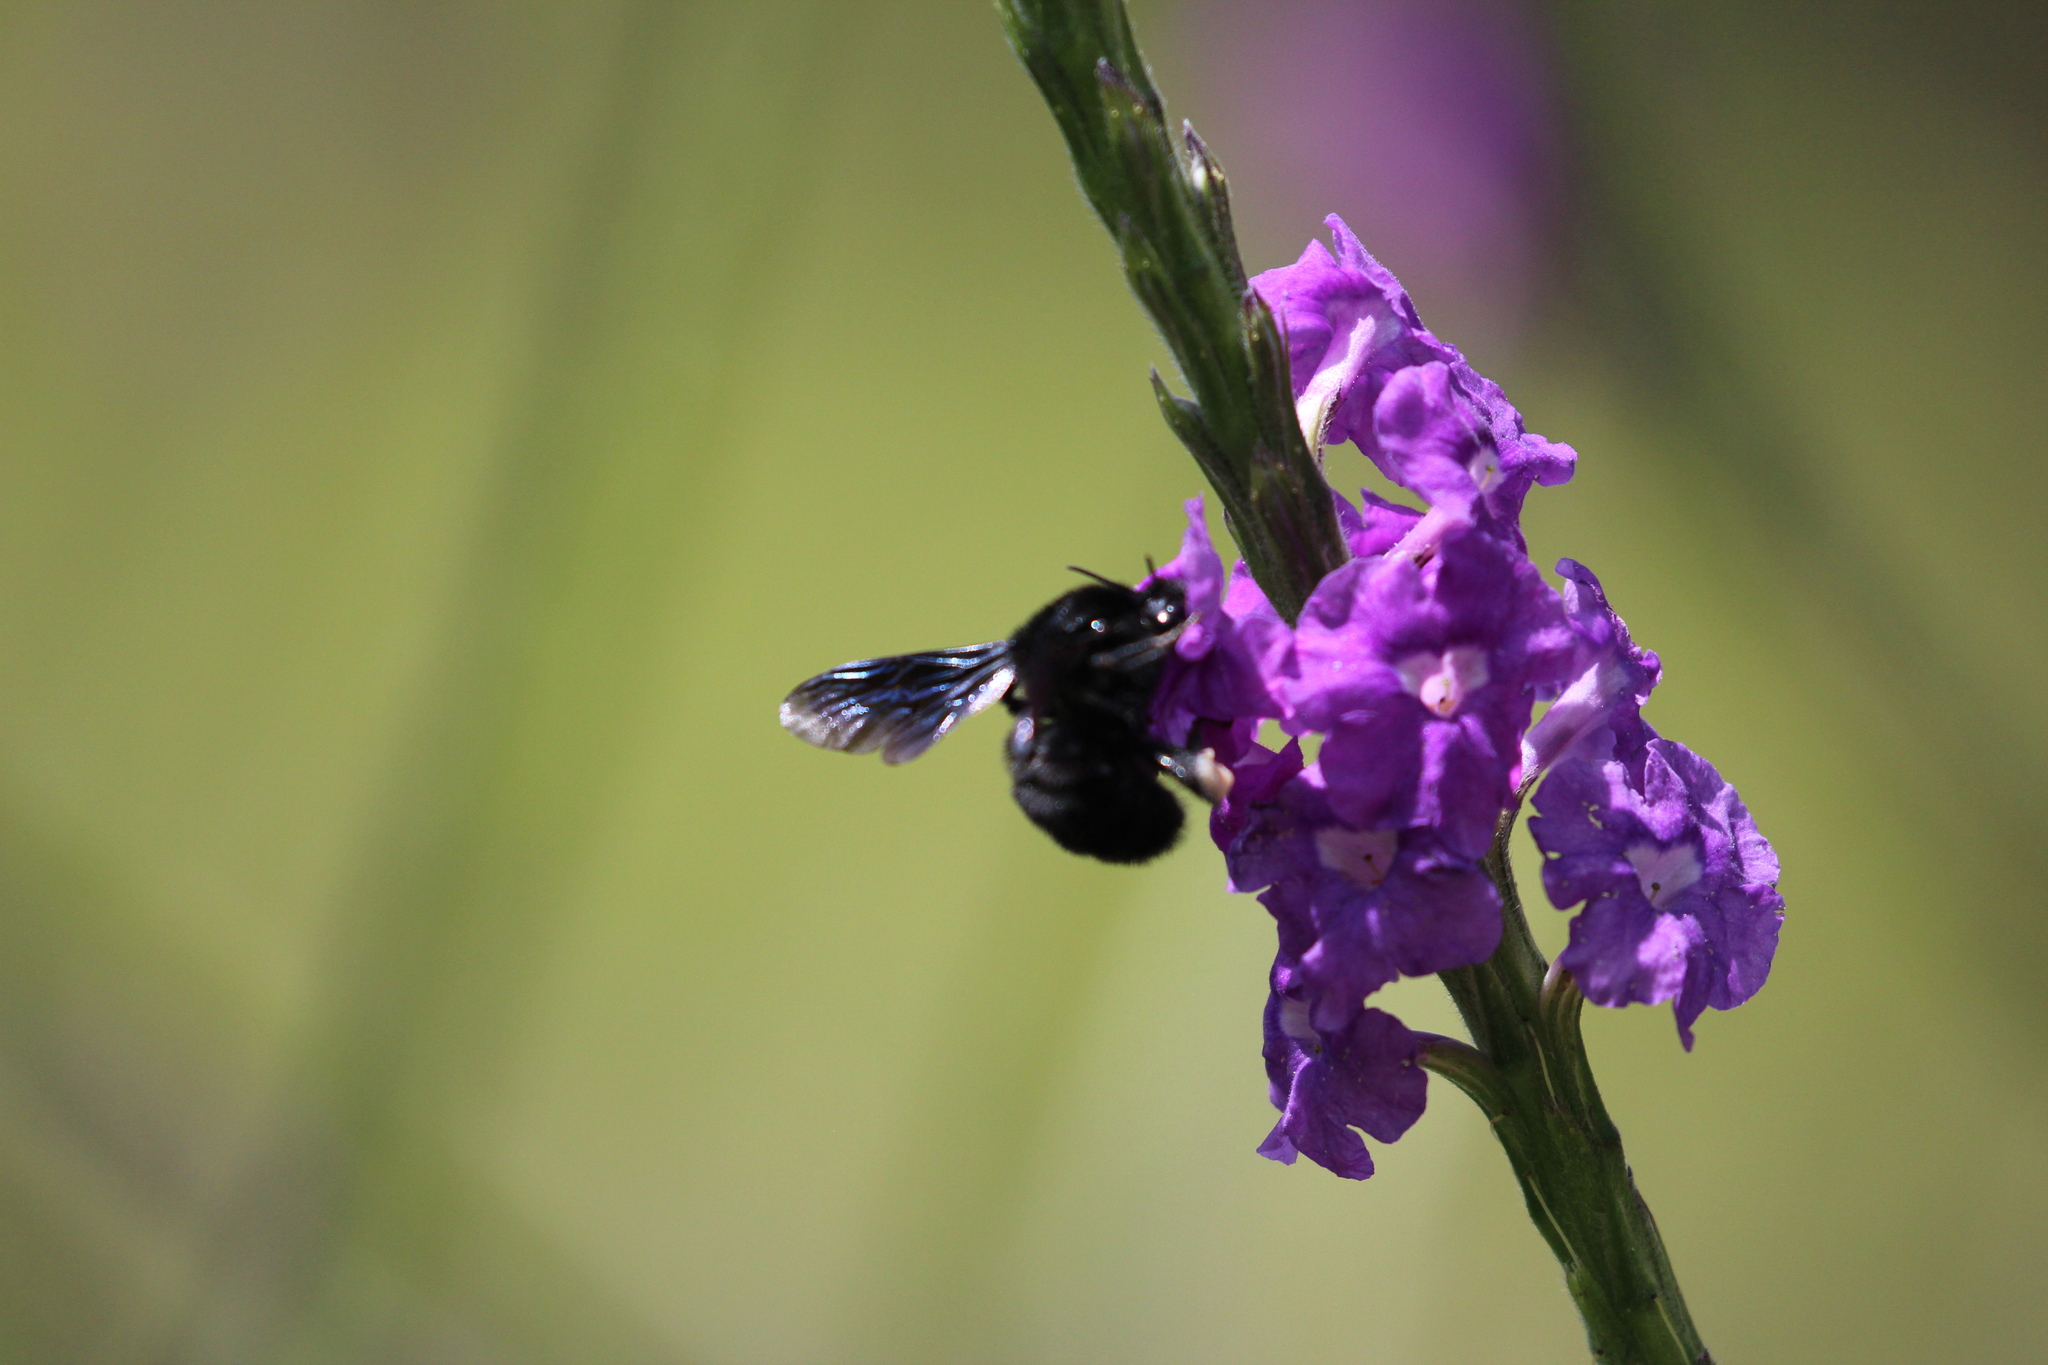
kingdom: Animalia
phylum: Arthropoda
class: Insecta
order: Hymenoptera
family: Apidae
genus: Bombus
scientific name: Bombus pullatus
